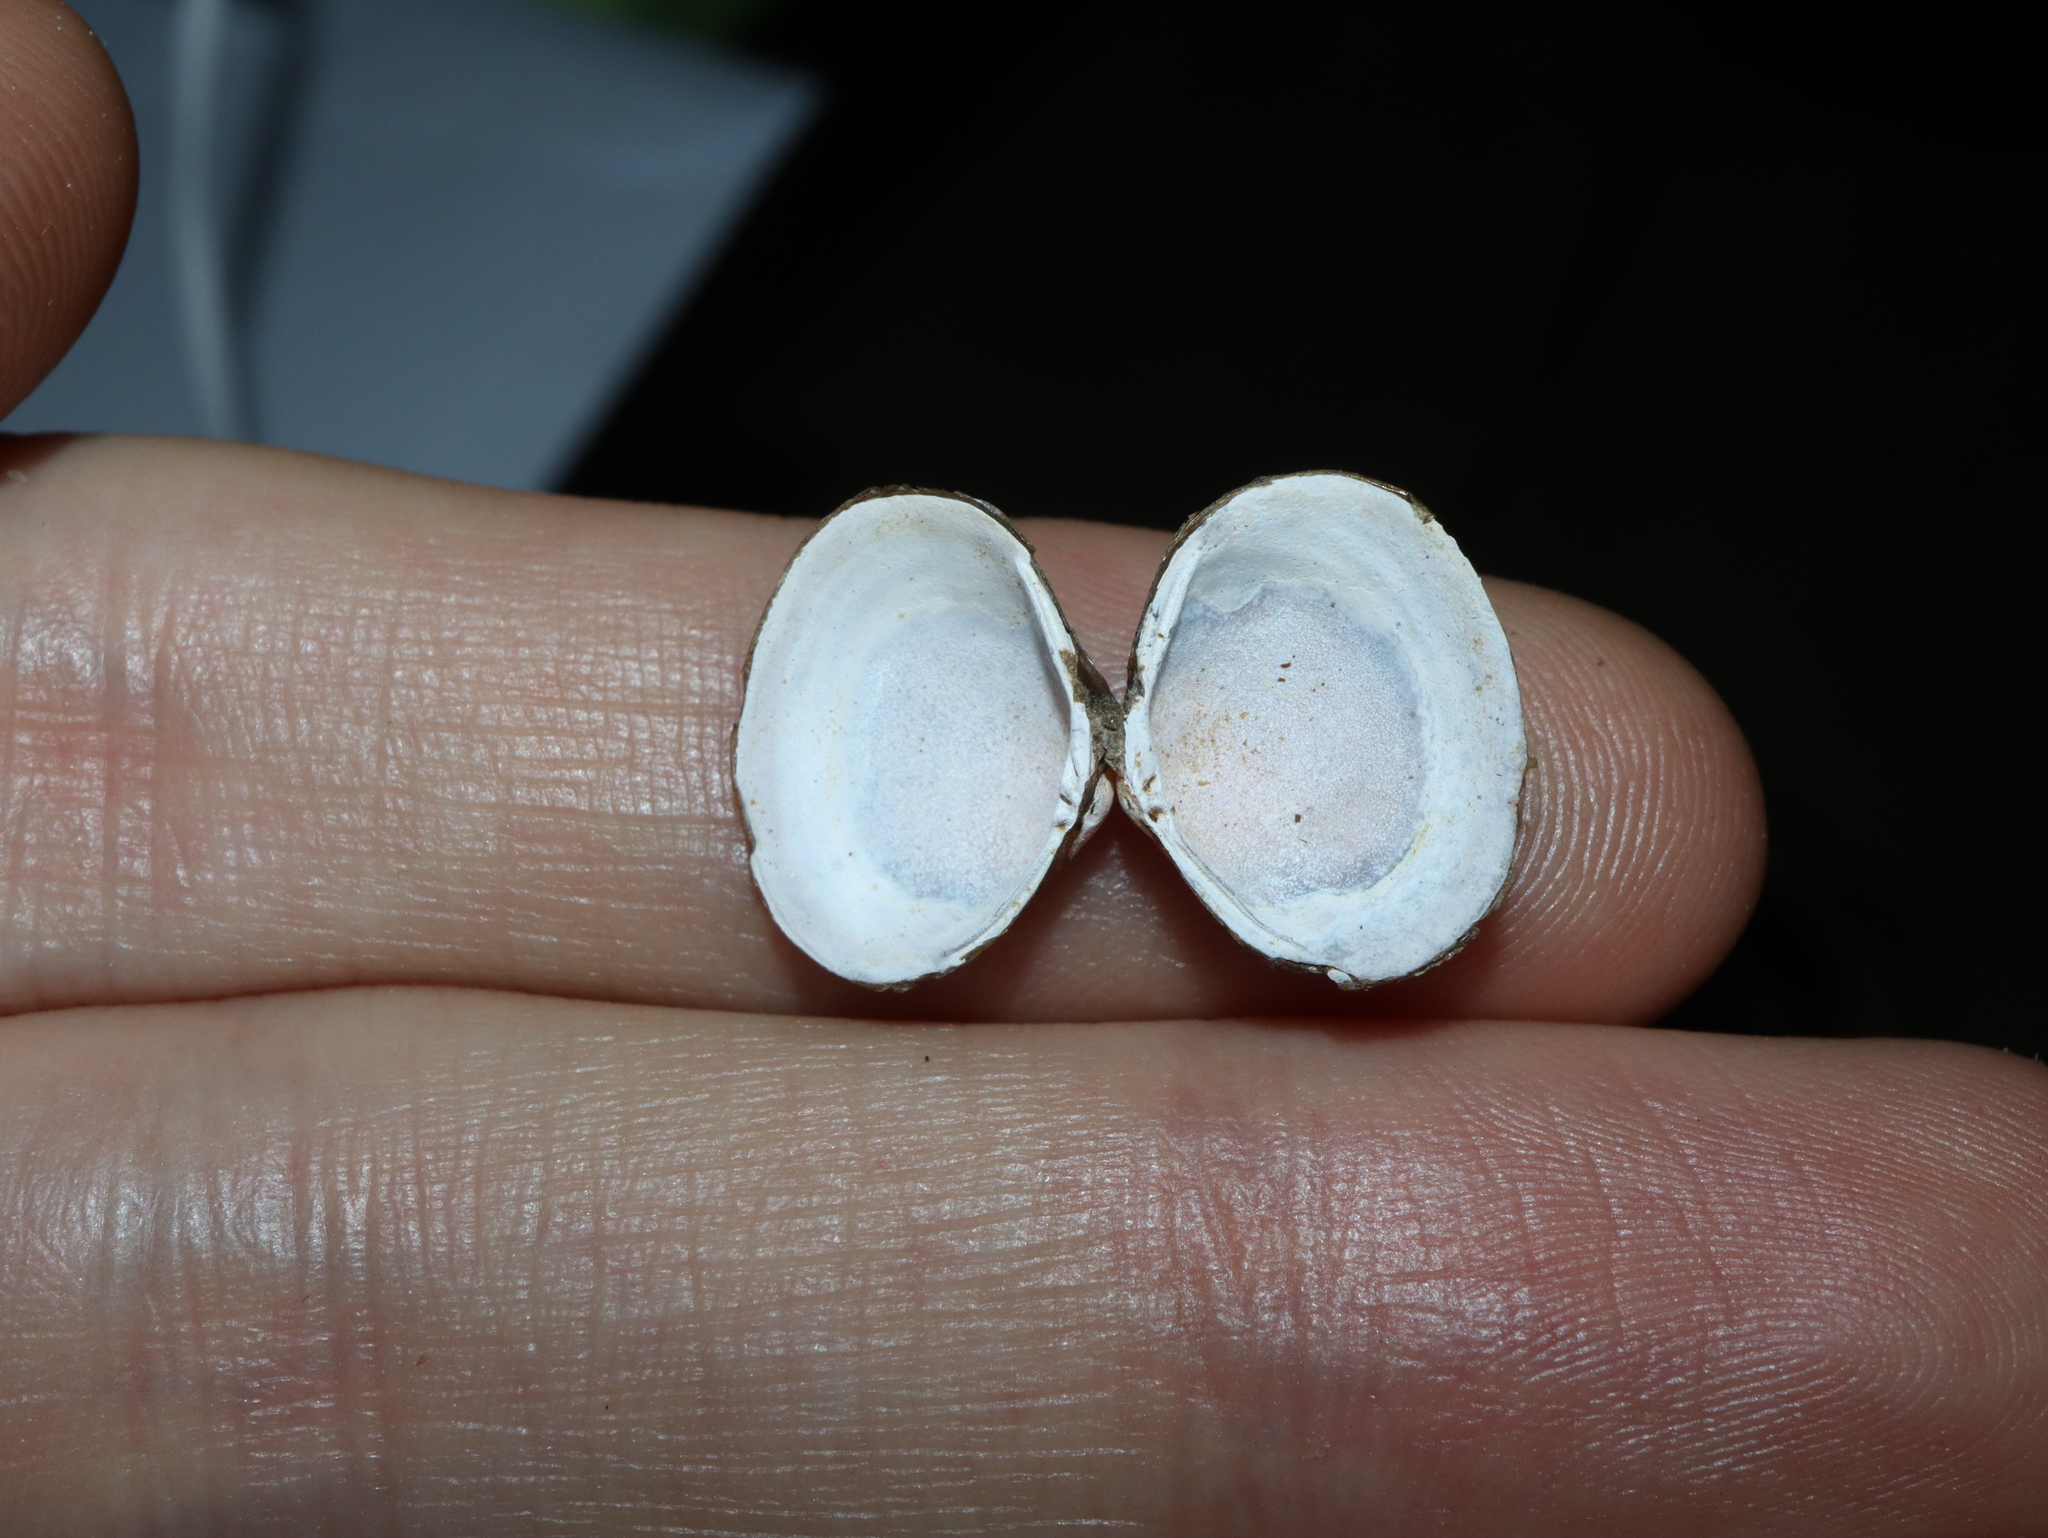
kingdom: Animalia
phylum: Mollusca
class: Bivalvia
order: Venerida
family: Cyrenidae
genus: Corbicula
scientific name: Corbicula australis
